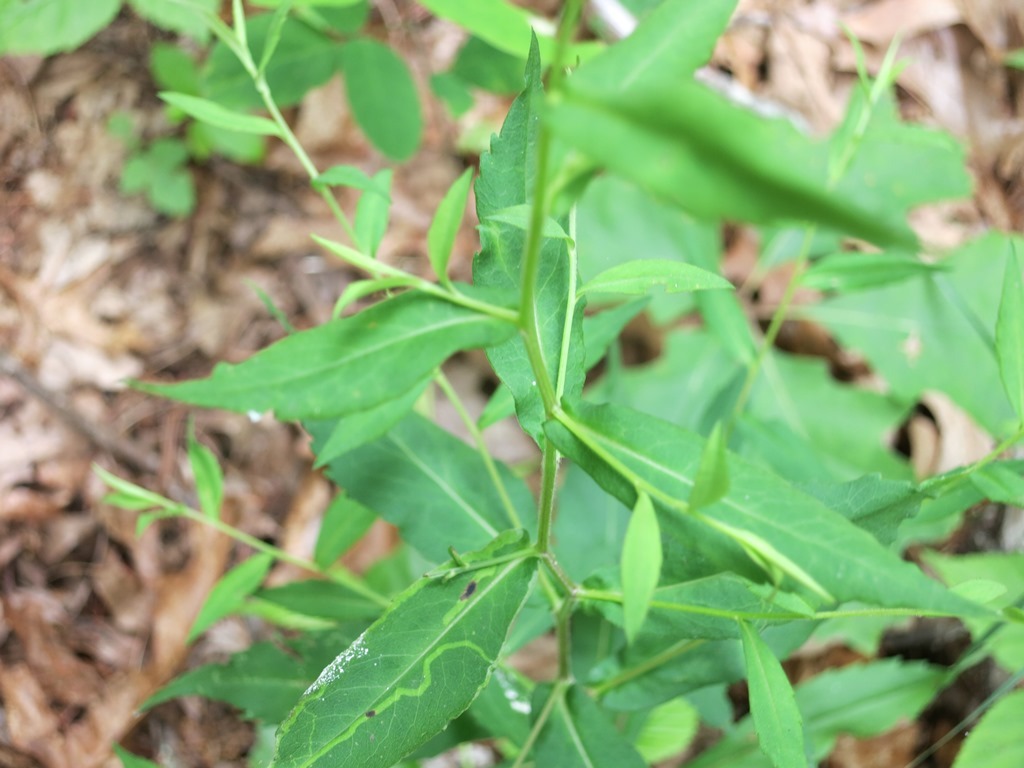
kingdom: Plantae
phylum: Tracheophyta
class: Magnoliopsida
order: Asterales
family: Asteraceae
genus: Symphyotrichum
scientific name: Symphyotrichum lateriflorum
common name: Calico aster
